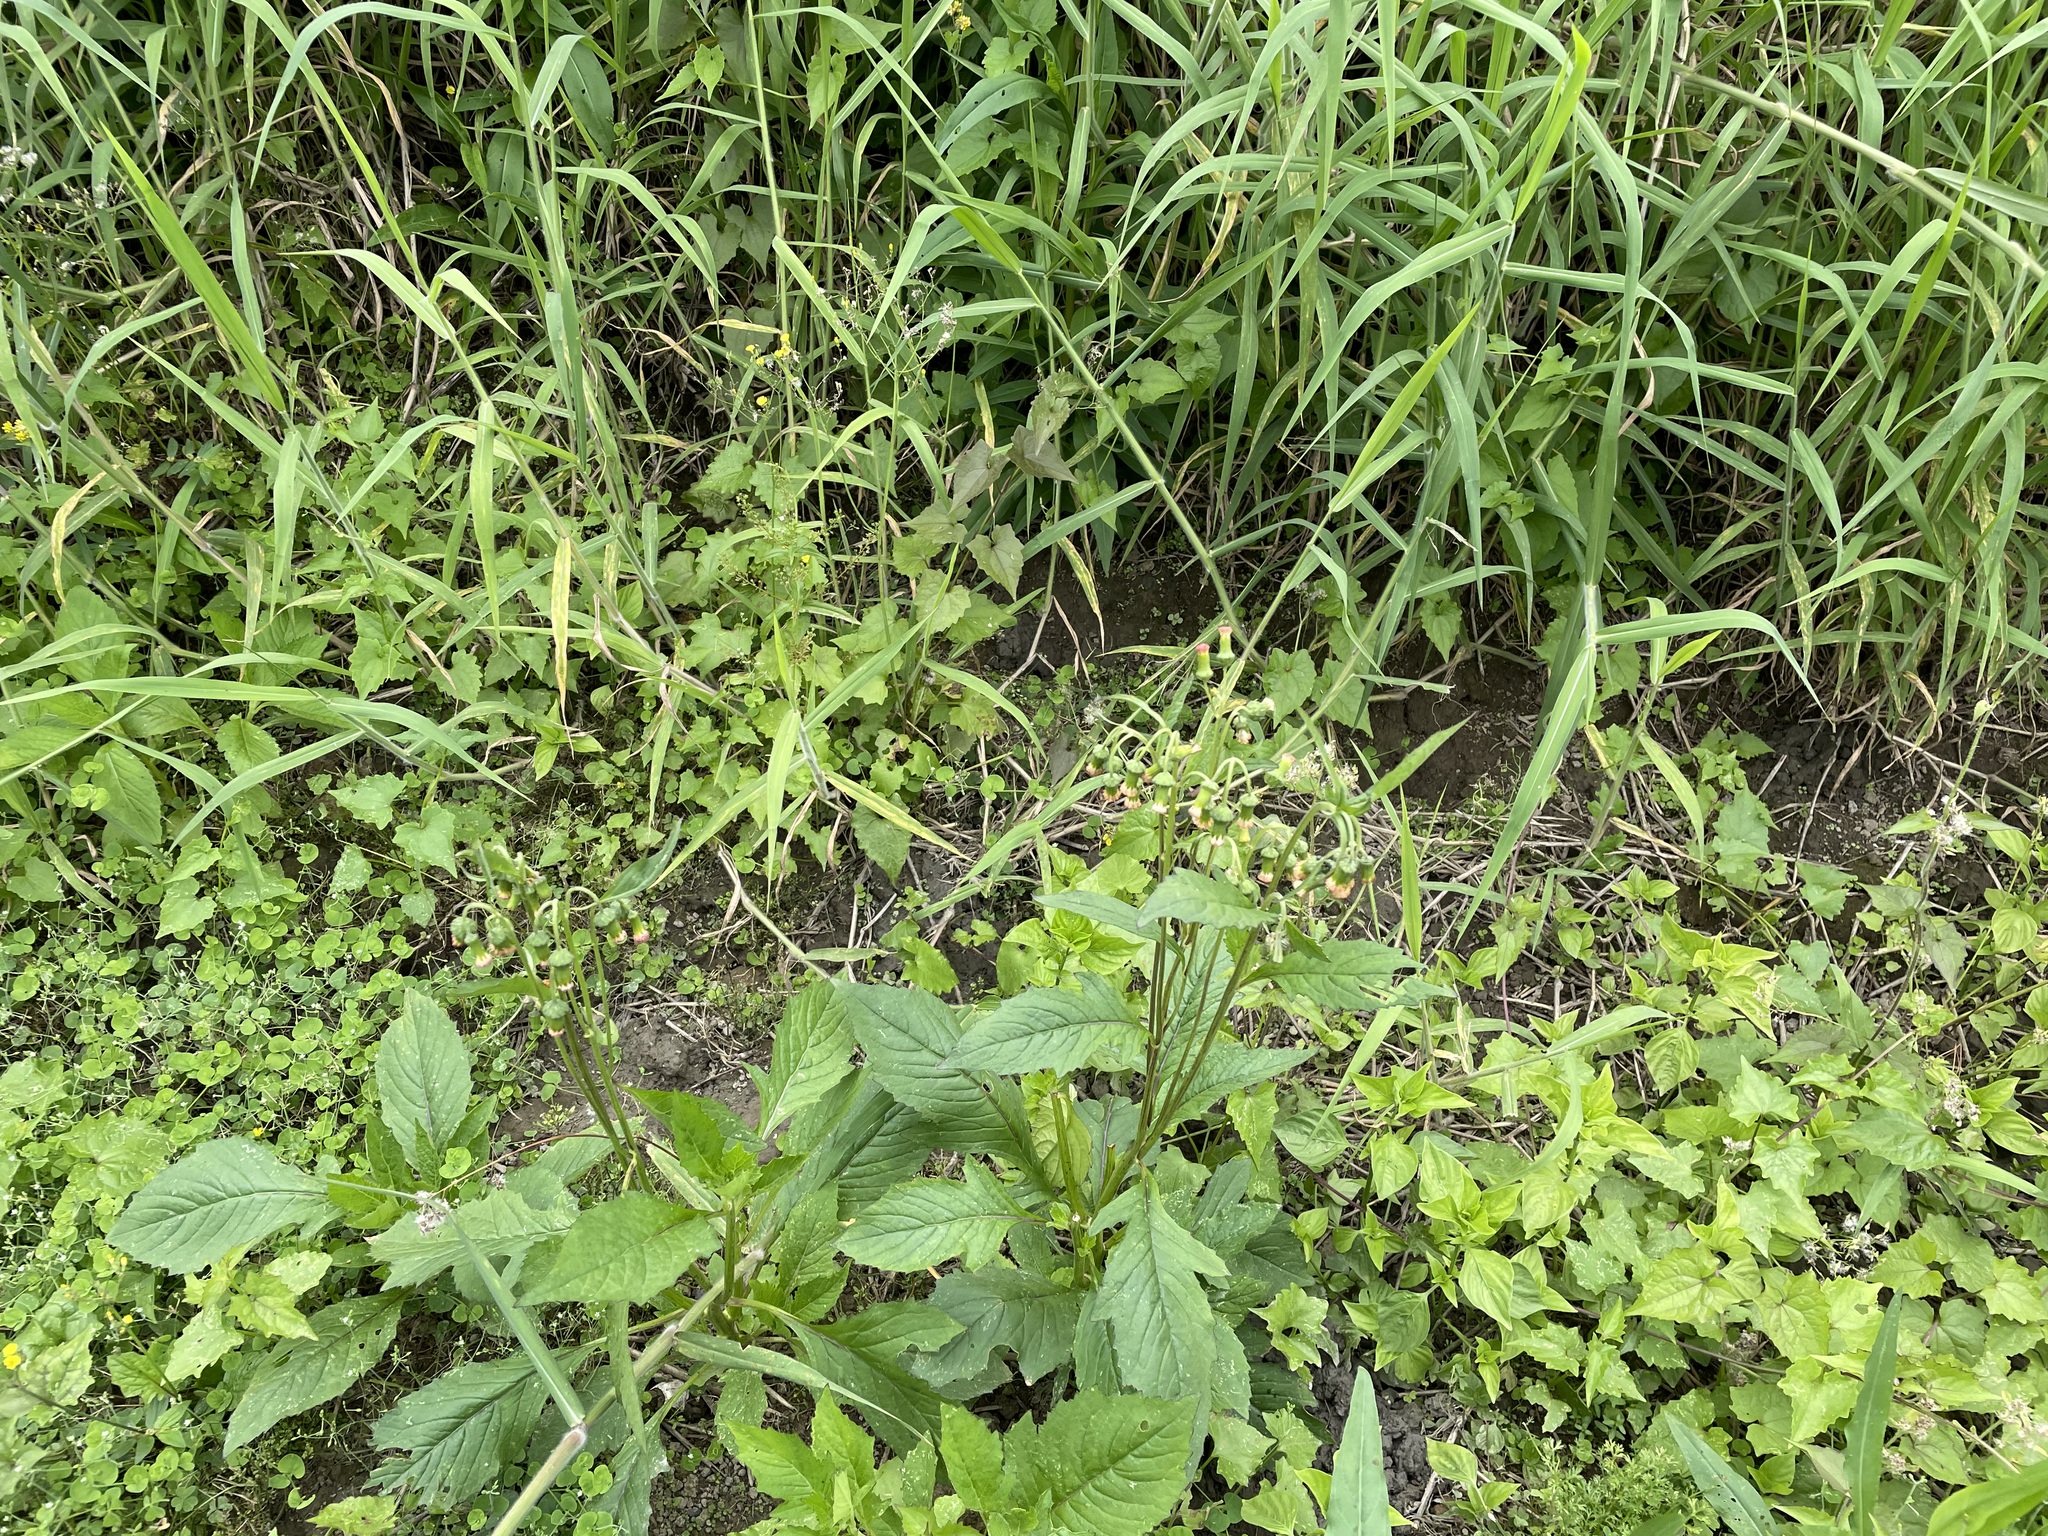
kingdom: Plantae
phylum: Tracheophyta
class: Magnoliopsida
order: Asterales
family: Asteraceae
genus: Crassocephalum
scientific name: Crassocephalum crepidioides
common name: Redflower ragleaf
